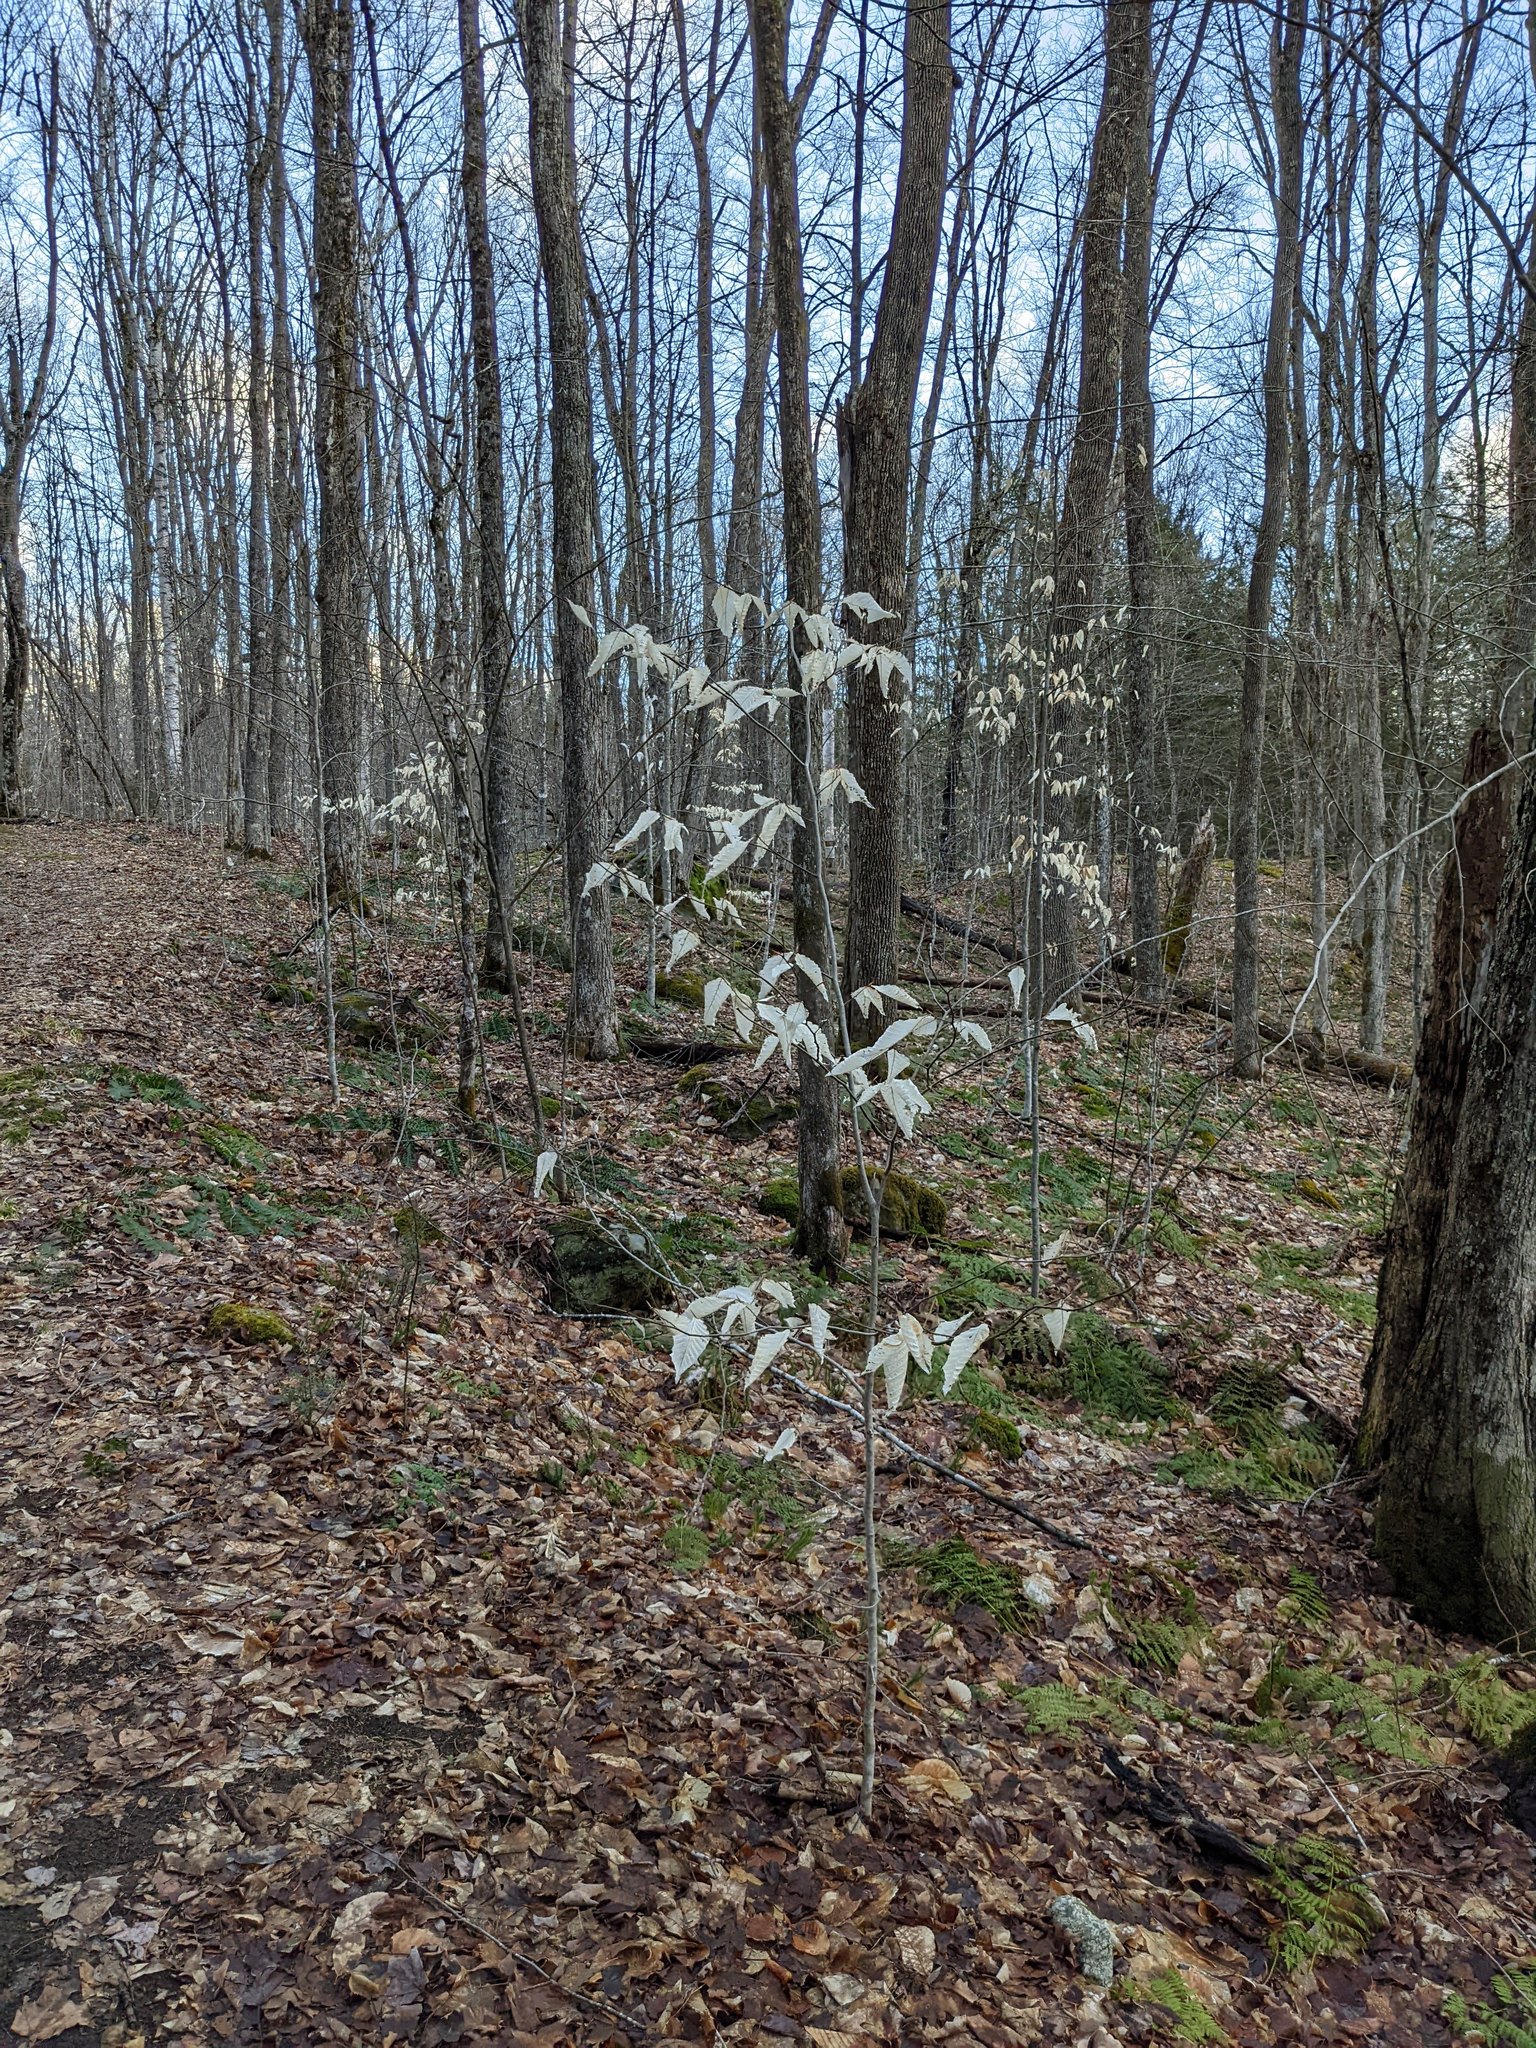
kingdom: Plantae
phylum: Tracheophyta
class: Magnoliopsida
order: Fagales
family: Fagaceae
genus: Fagus
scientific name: Fagus grandifolia
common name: American beech
